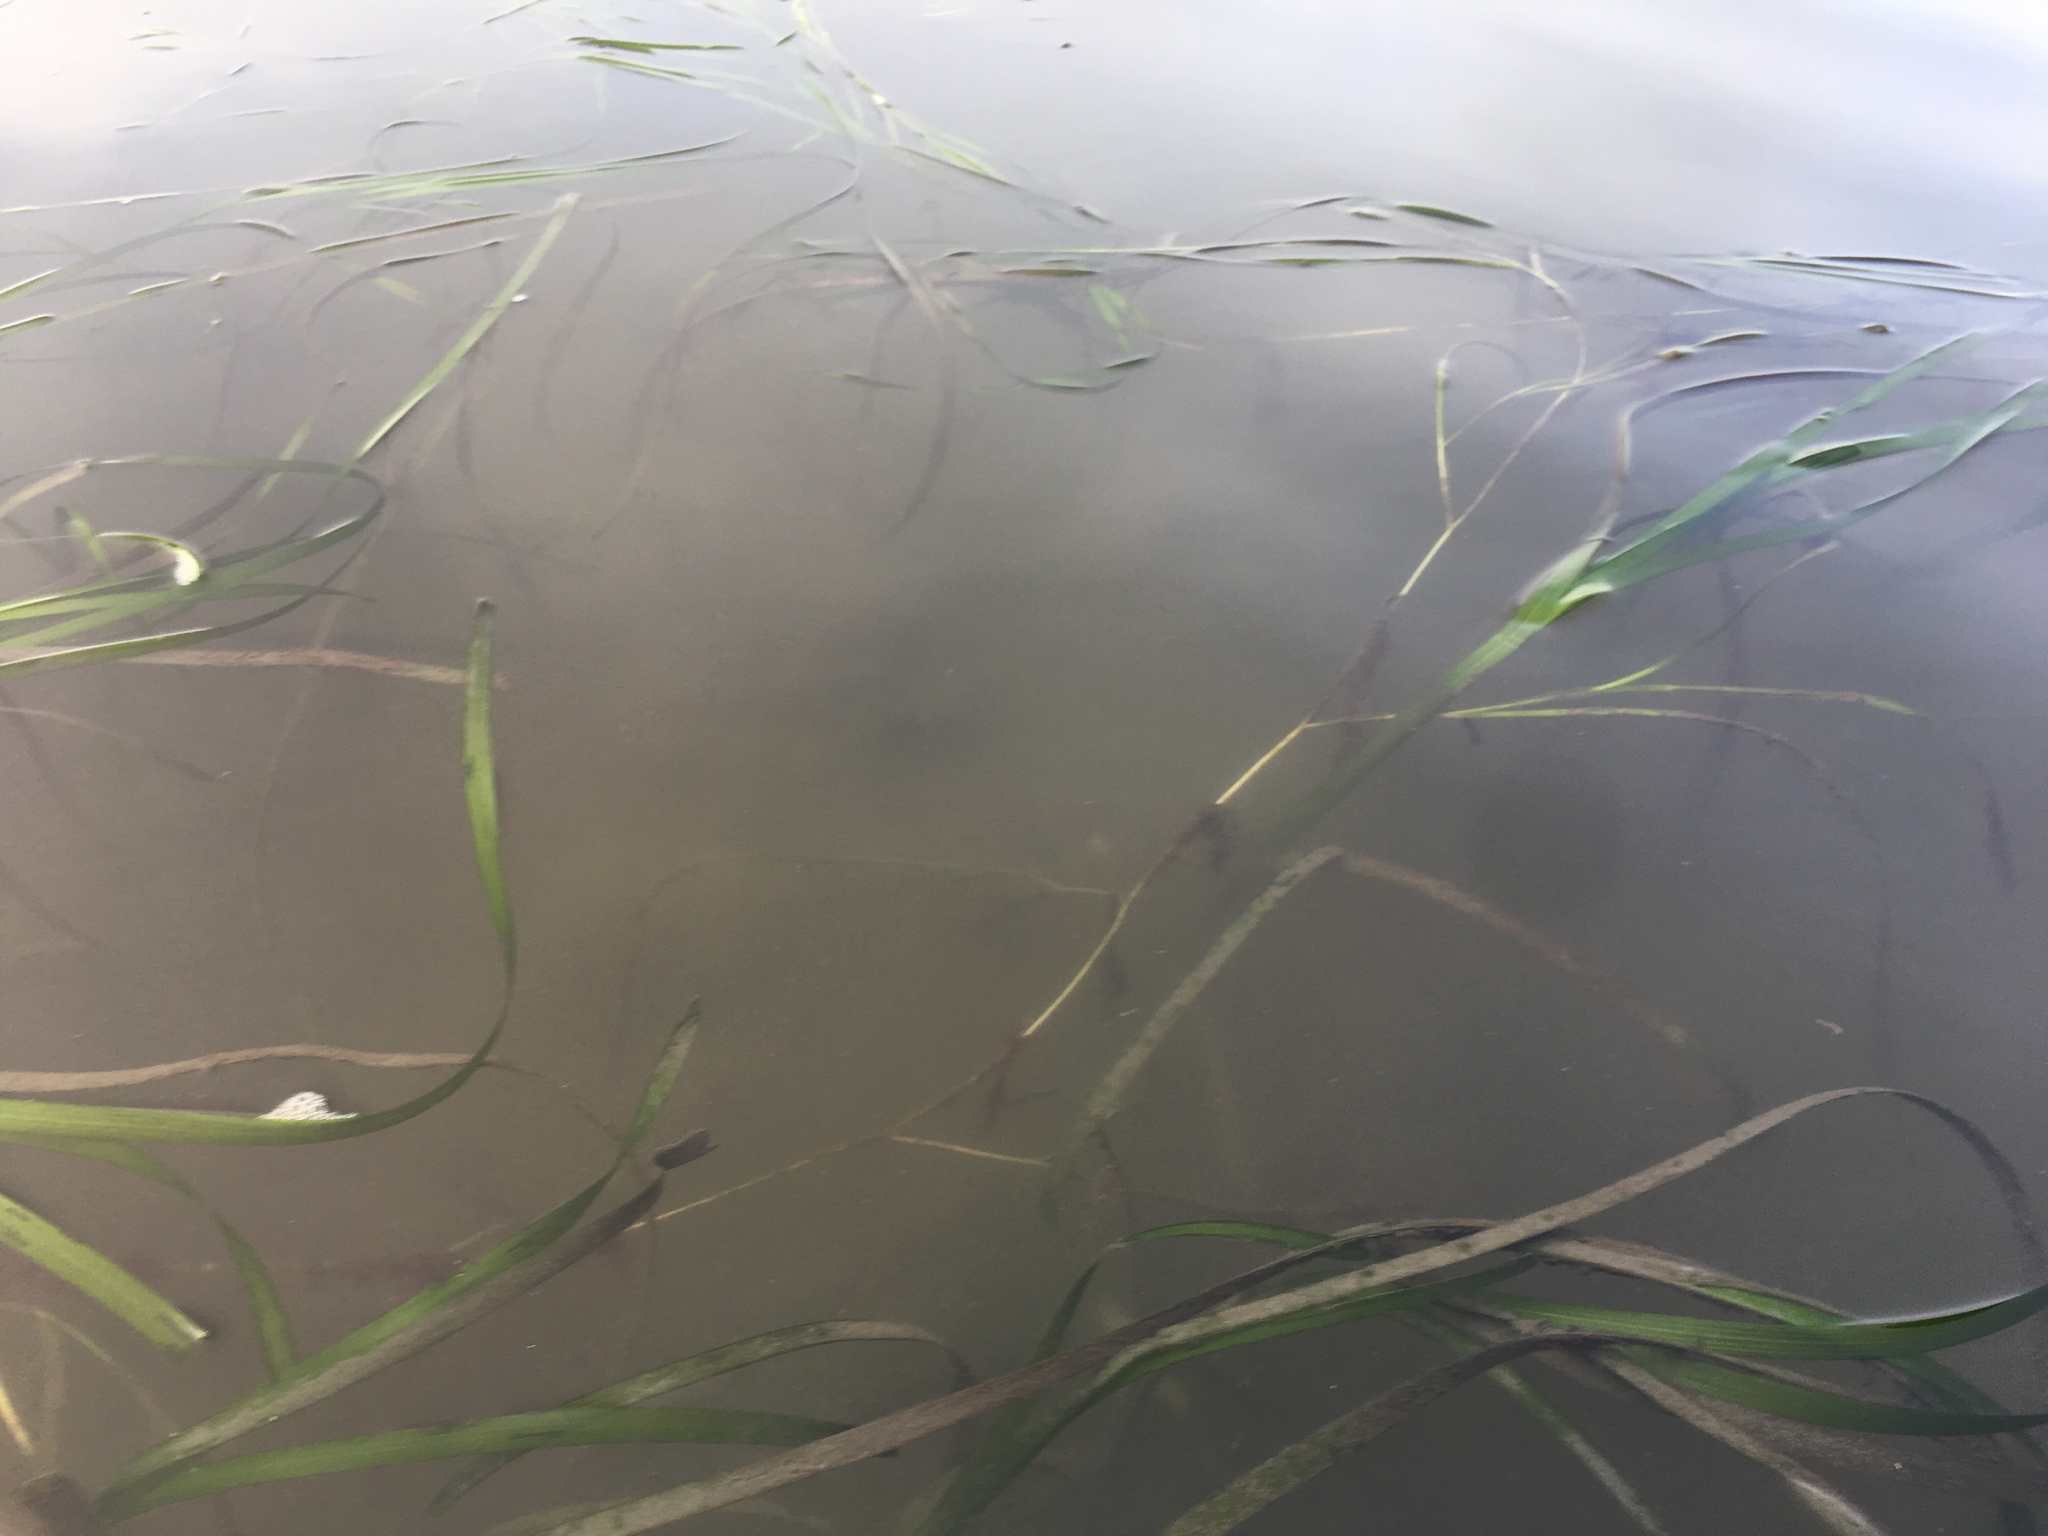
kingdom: Plantae
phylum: Tracheophyta
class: Liliopsida
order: Alismatales
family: Zosteraceae
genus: Zostera
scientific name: Zostera marina
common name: Eelgrass
